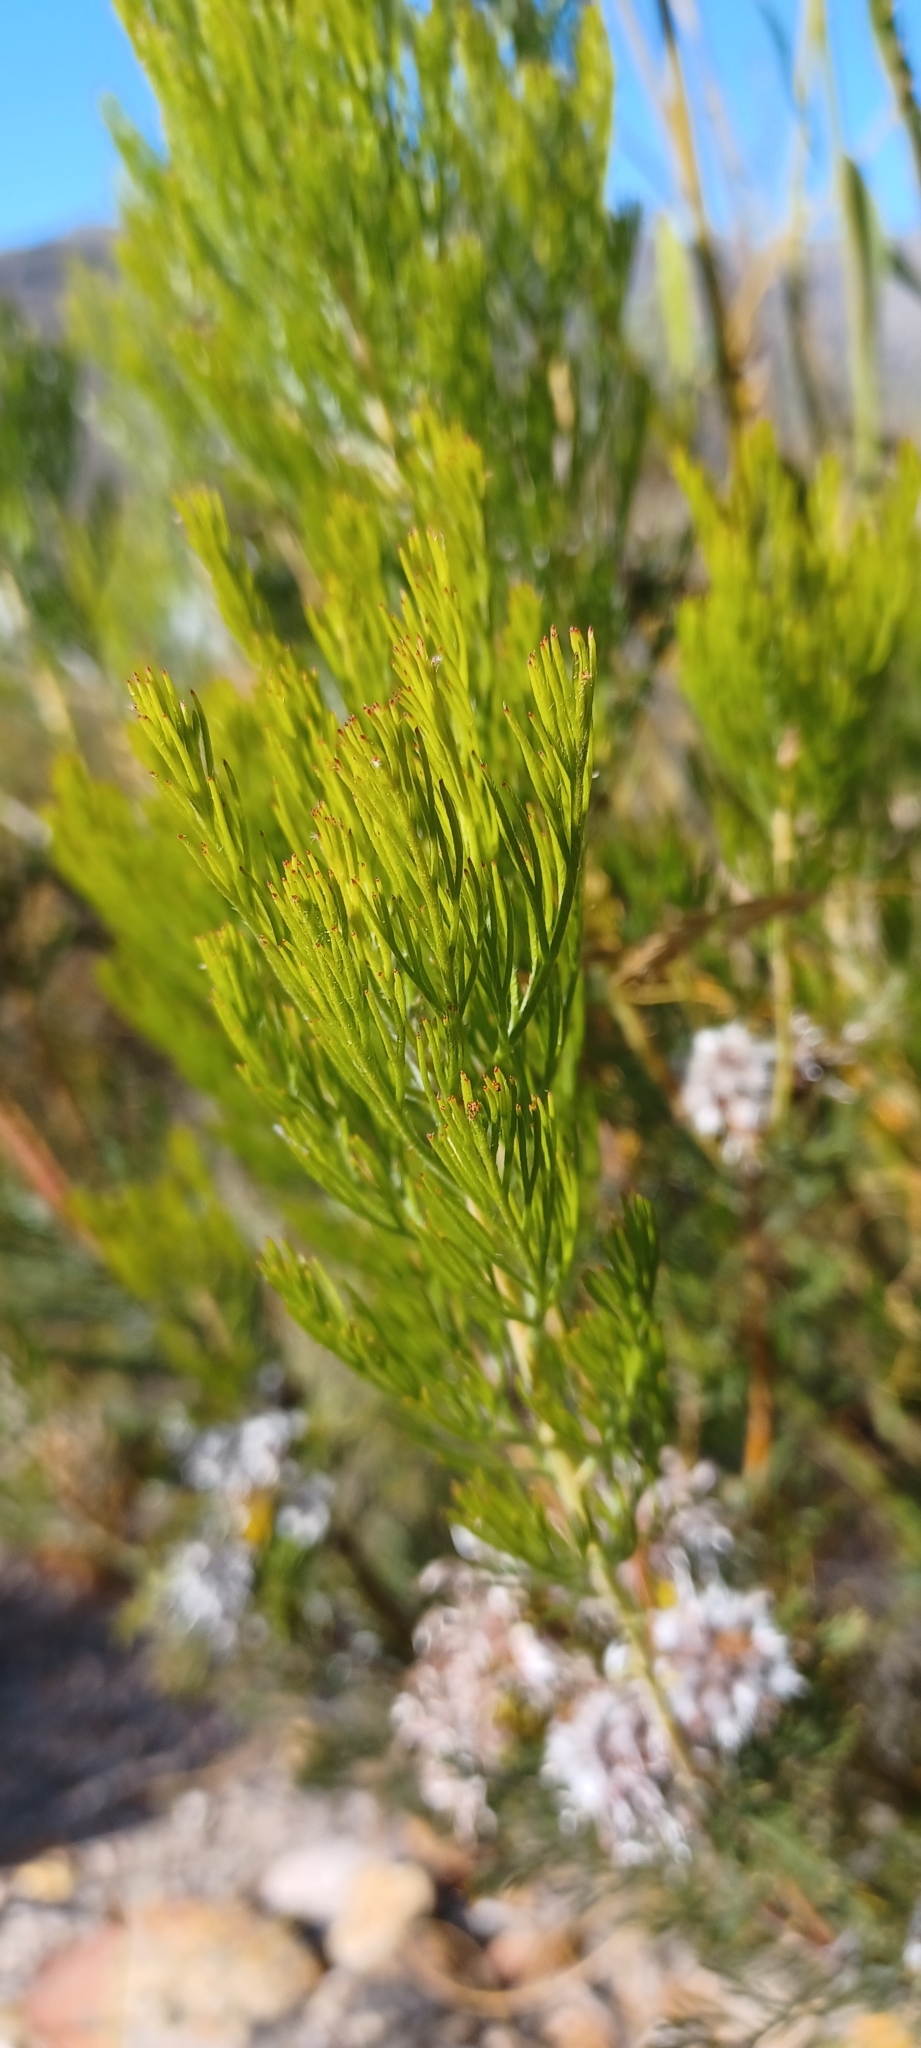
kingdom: Plantae
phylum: Tracheophyta
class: Magnoliopsida
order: Proteales
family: Proteaceae
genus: Serruria
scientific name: Serruria dodii
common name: Hex river spiderhead
